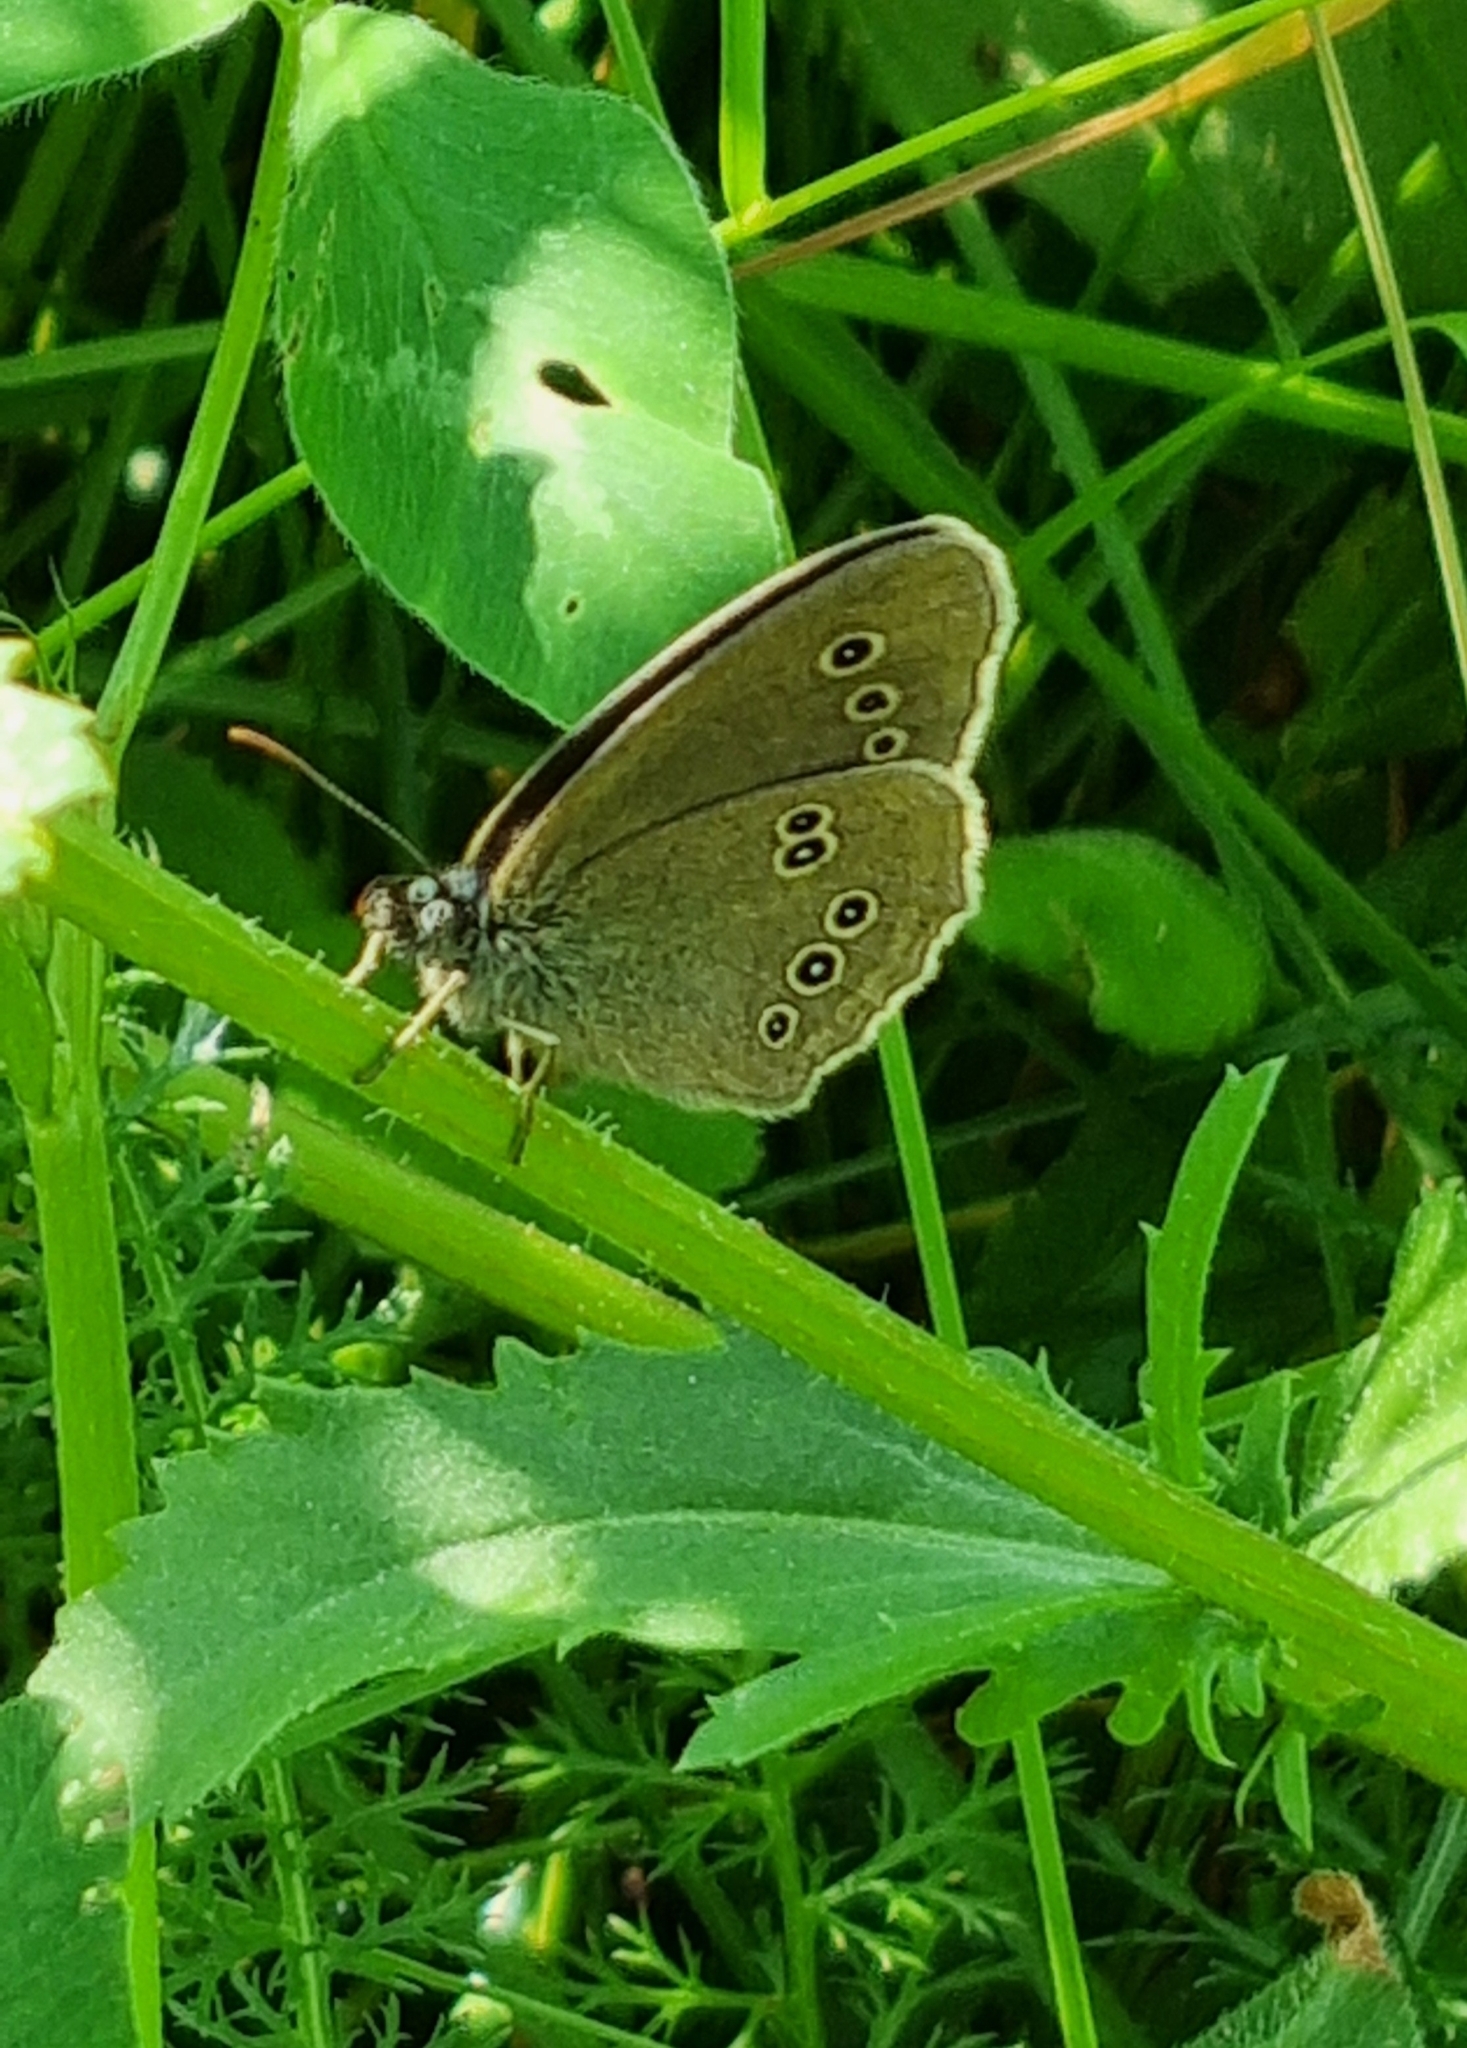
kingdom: Animalia
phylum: Arthropoda
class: Insecta
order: Lepidoptera
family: Nymphalidae
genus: Aphantopus
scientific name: Aphantopus hyperantus
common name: Ringlet
